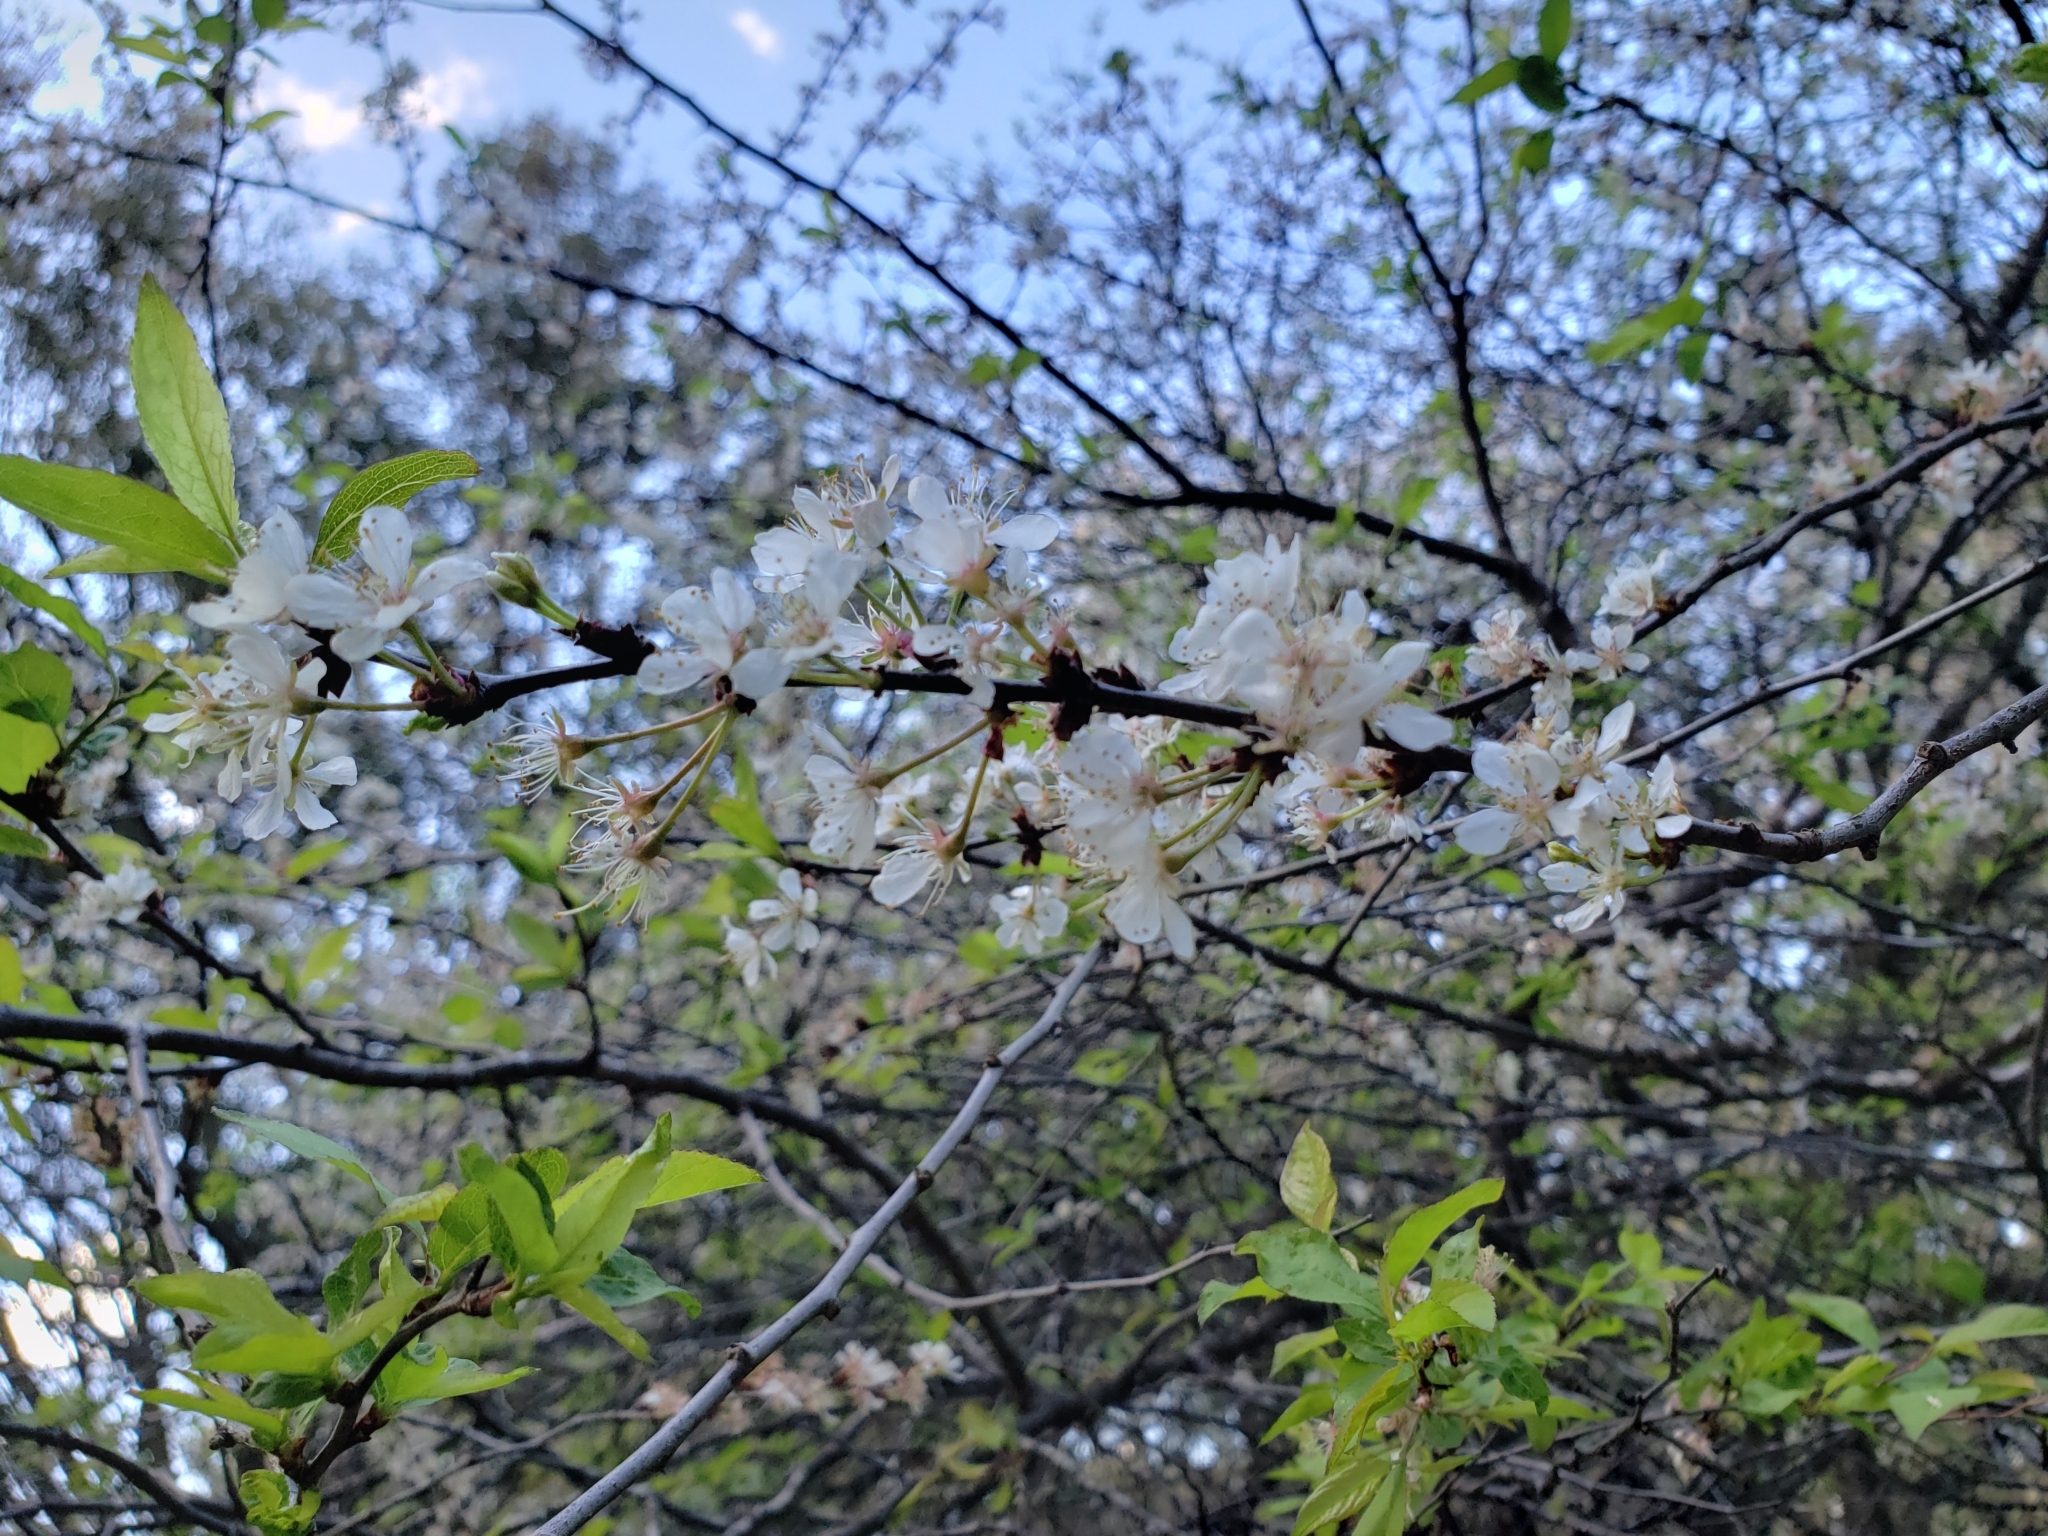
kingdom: Plantae
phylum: Tracheophyta
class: Magnoliopsida
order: Rosales
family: Rosaceae
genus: Prunus
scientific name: Prunus angustifolia
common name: Cherokee plum
